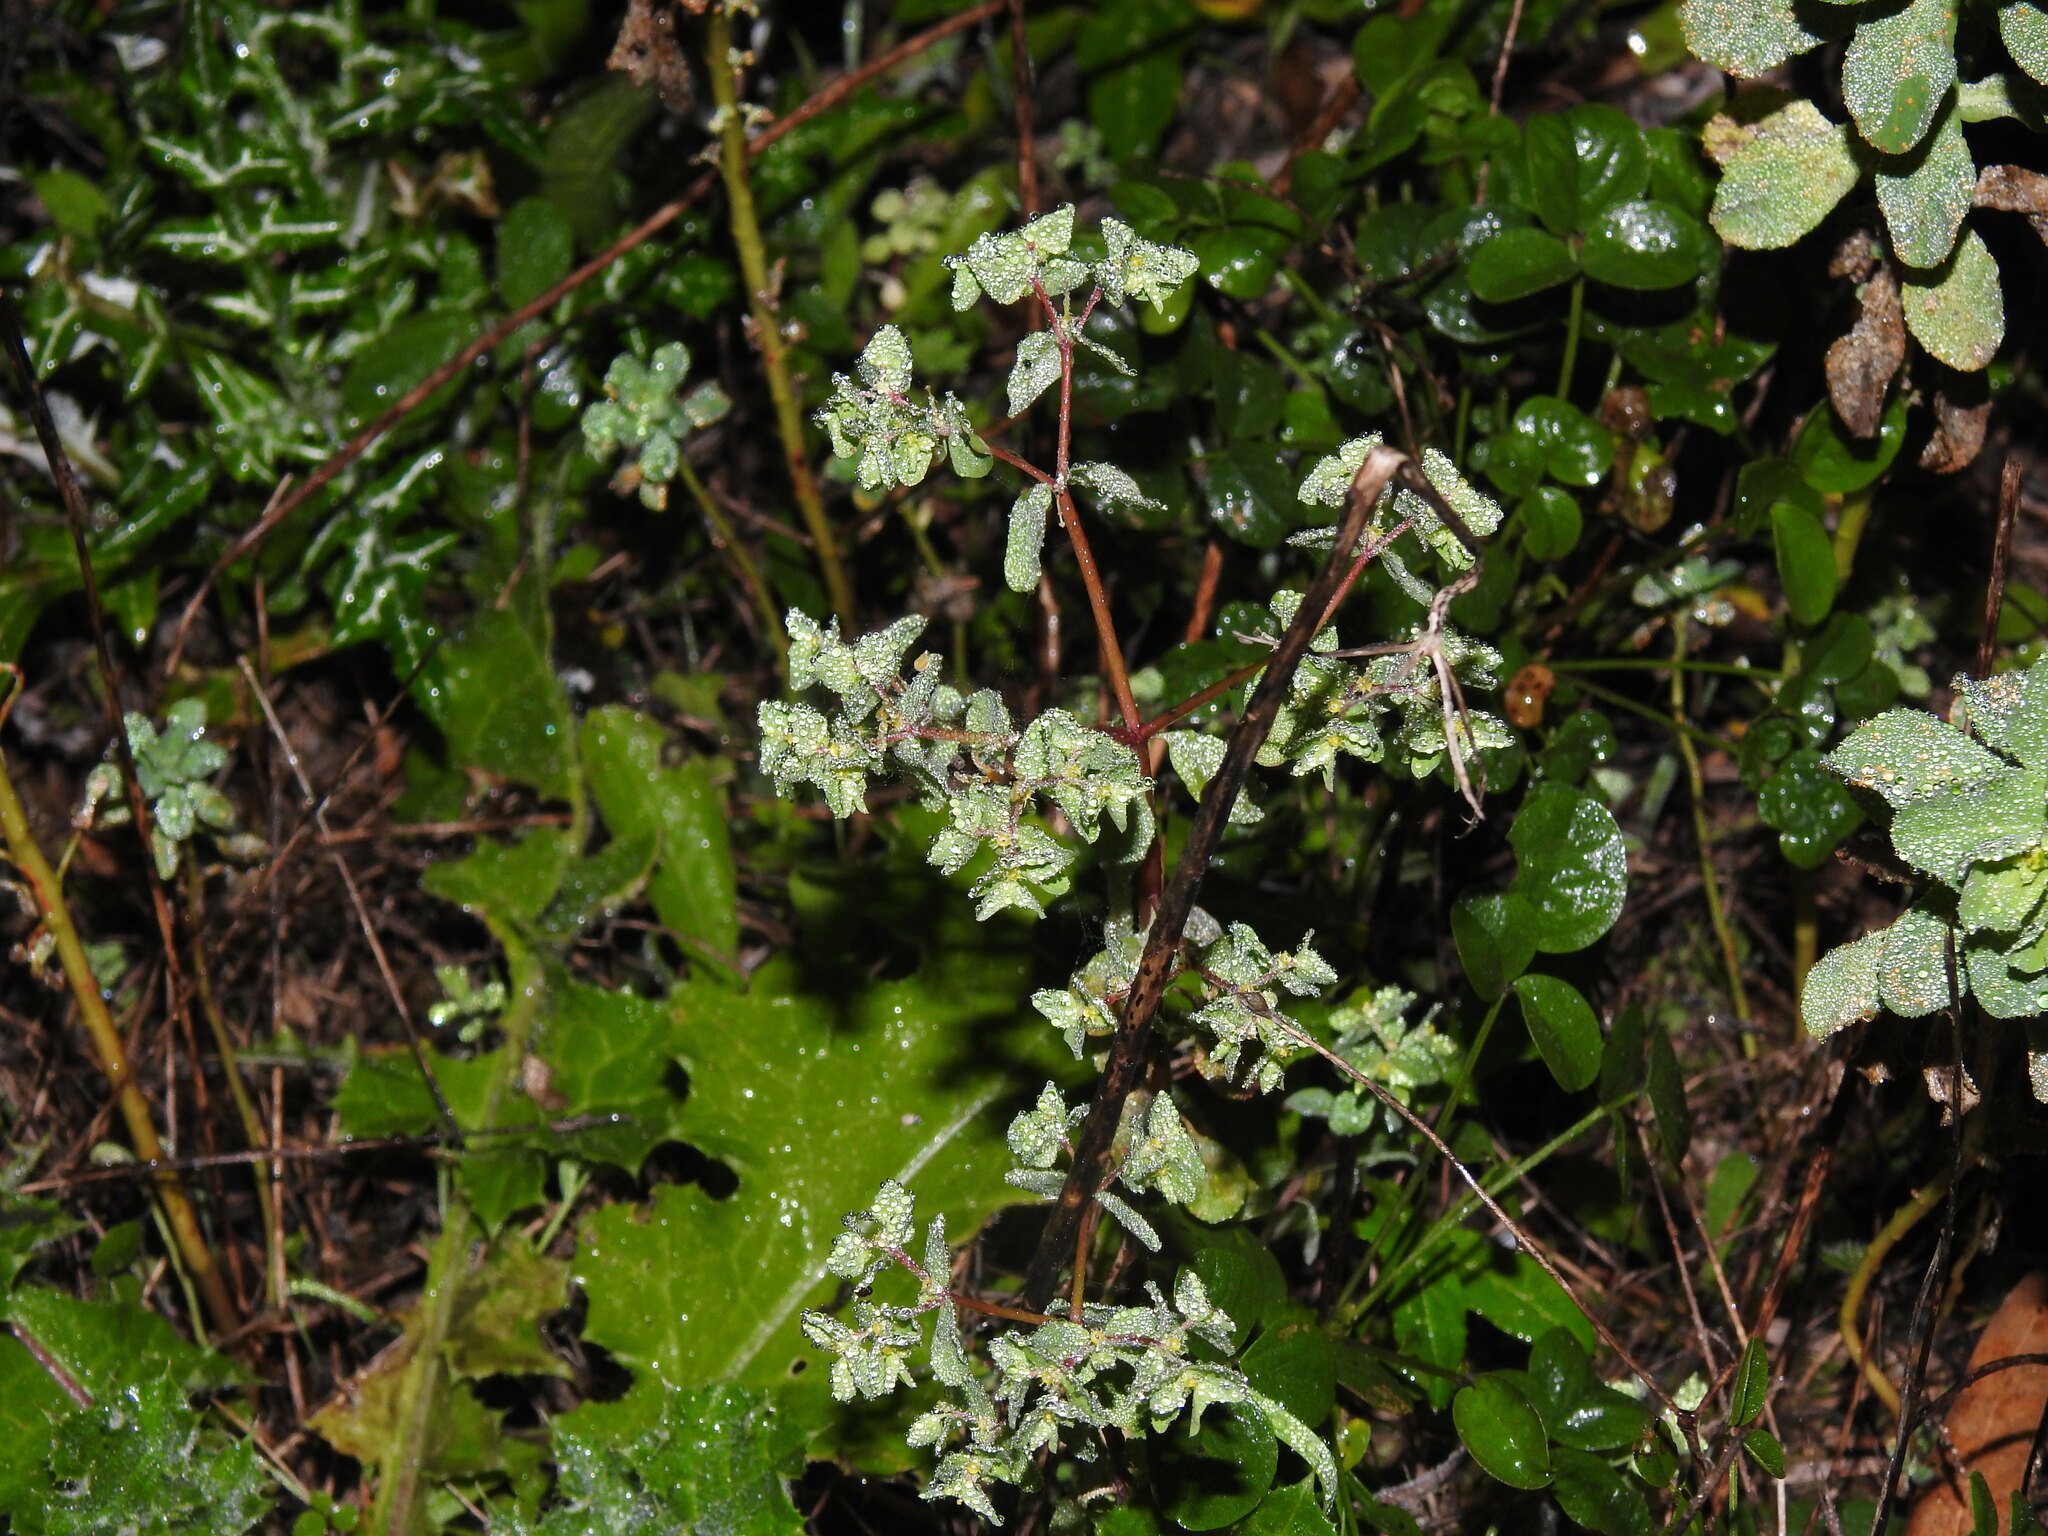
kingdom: Plantae
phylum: Tracheophyta
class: Magnoliopsida
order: Malpighiales
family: Euphorbiaceae
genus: Euphorbia
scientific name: Euphorbia peplus
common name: Petty spurge
